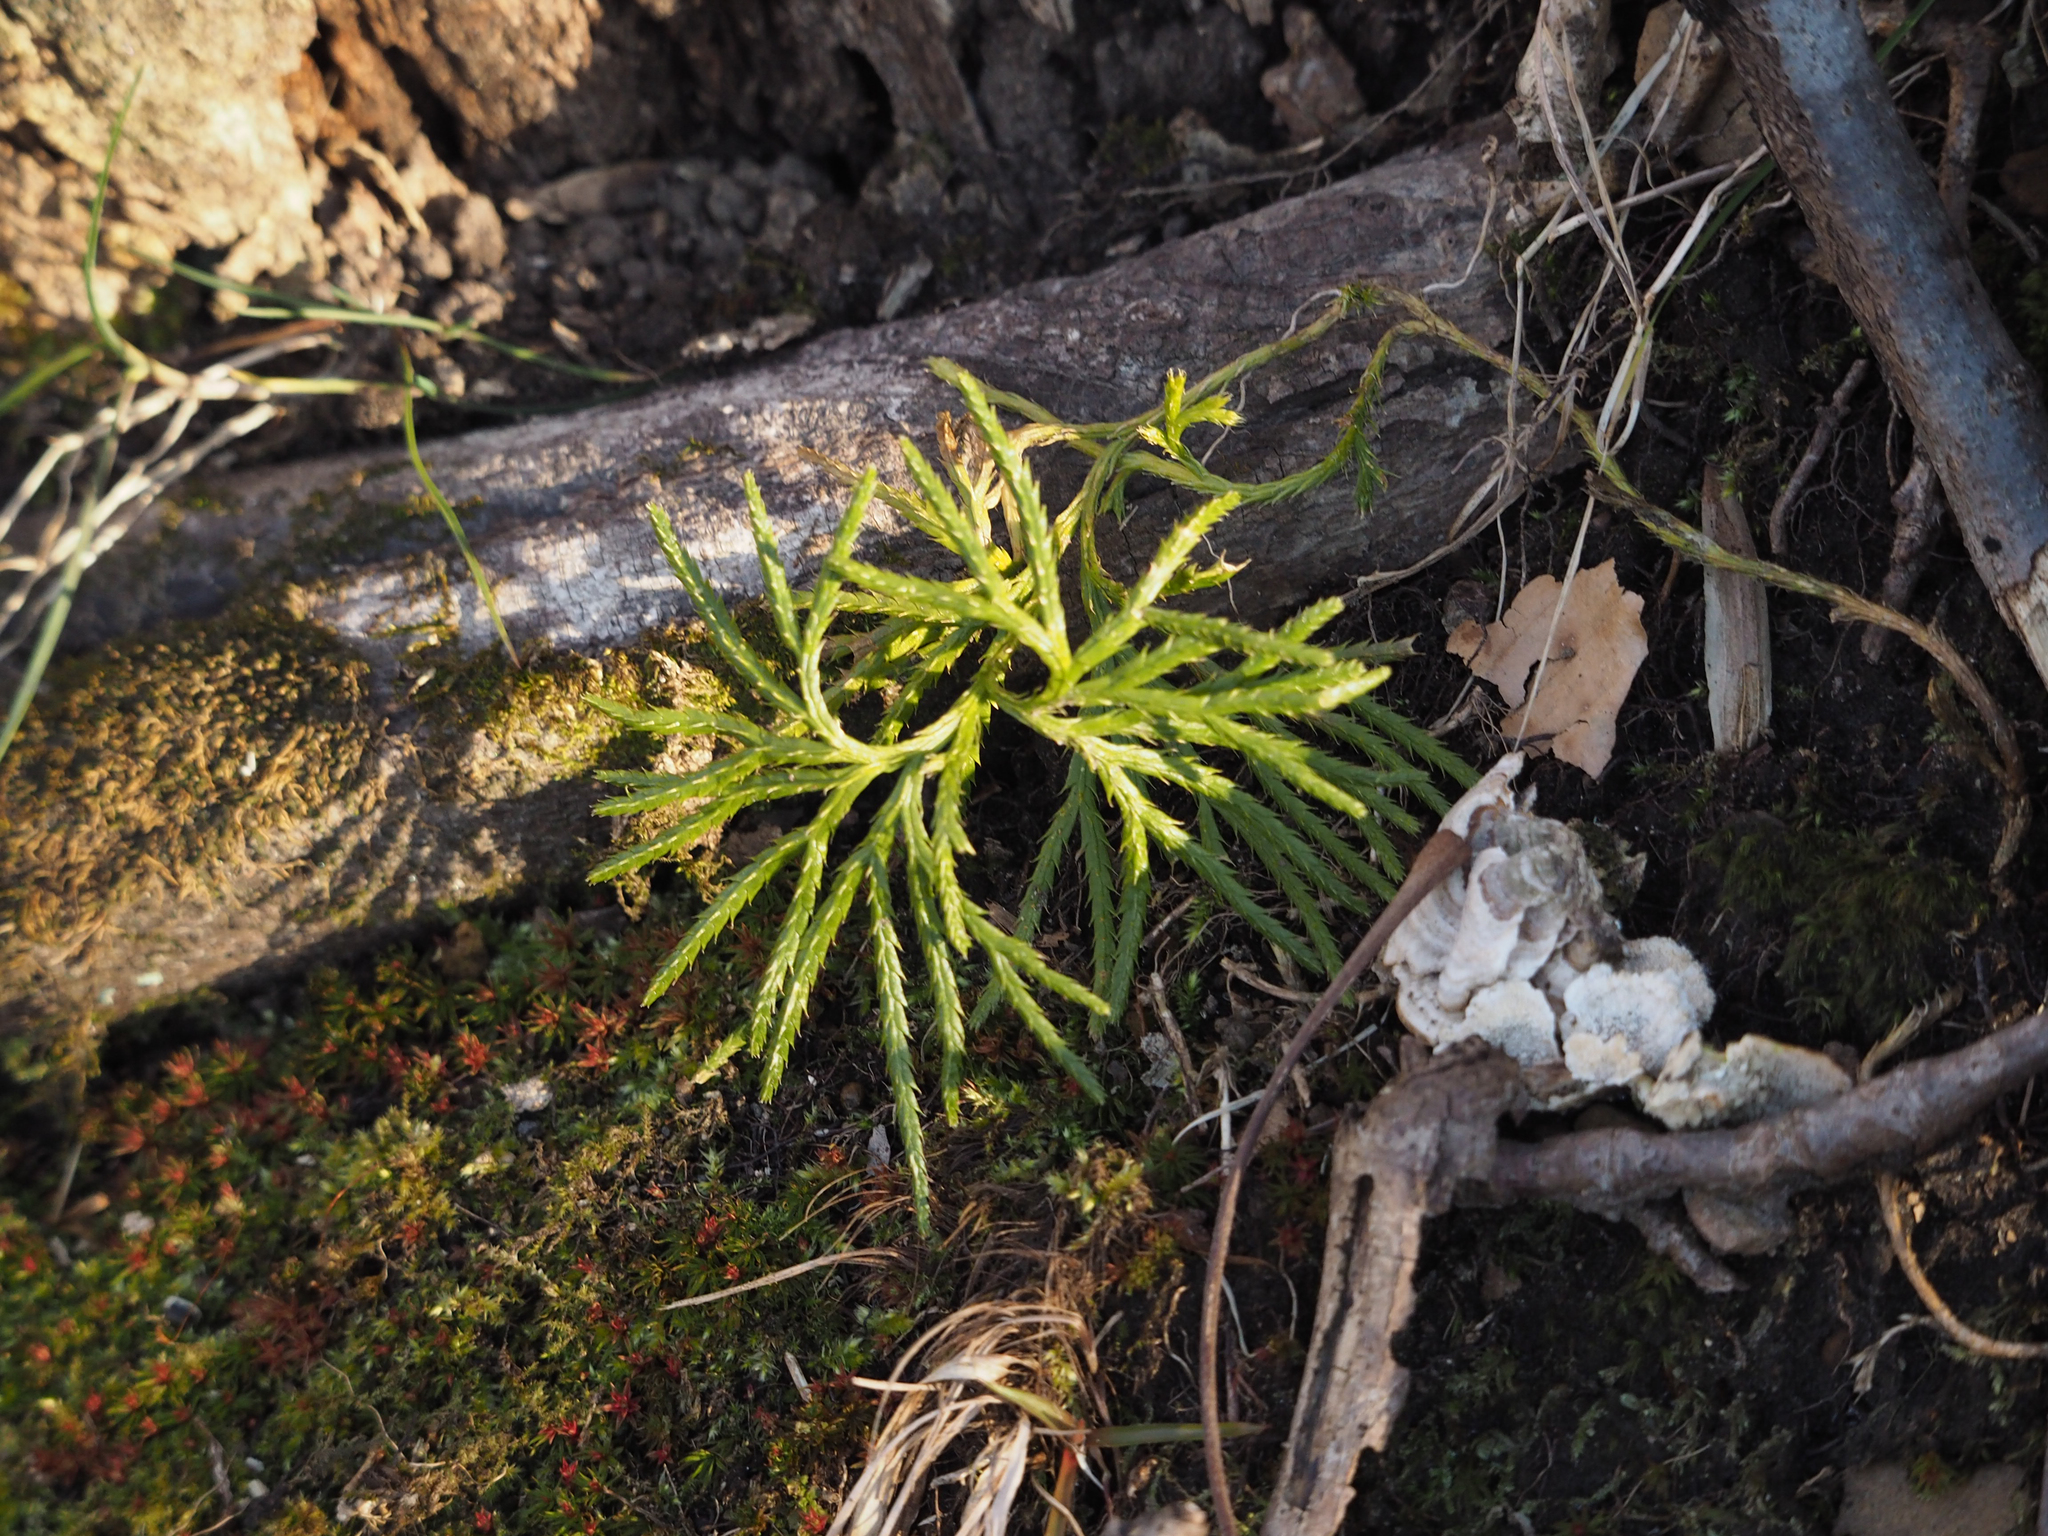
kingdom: Plantae
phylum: Tracheophyta
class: Lycopodiopsida
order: Lycopodiales
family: Lycopodiaceae
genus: Diphasiastrum
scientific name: Diphasiastrum digitatum
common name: Southern running-pine
